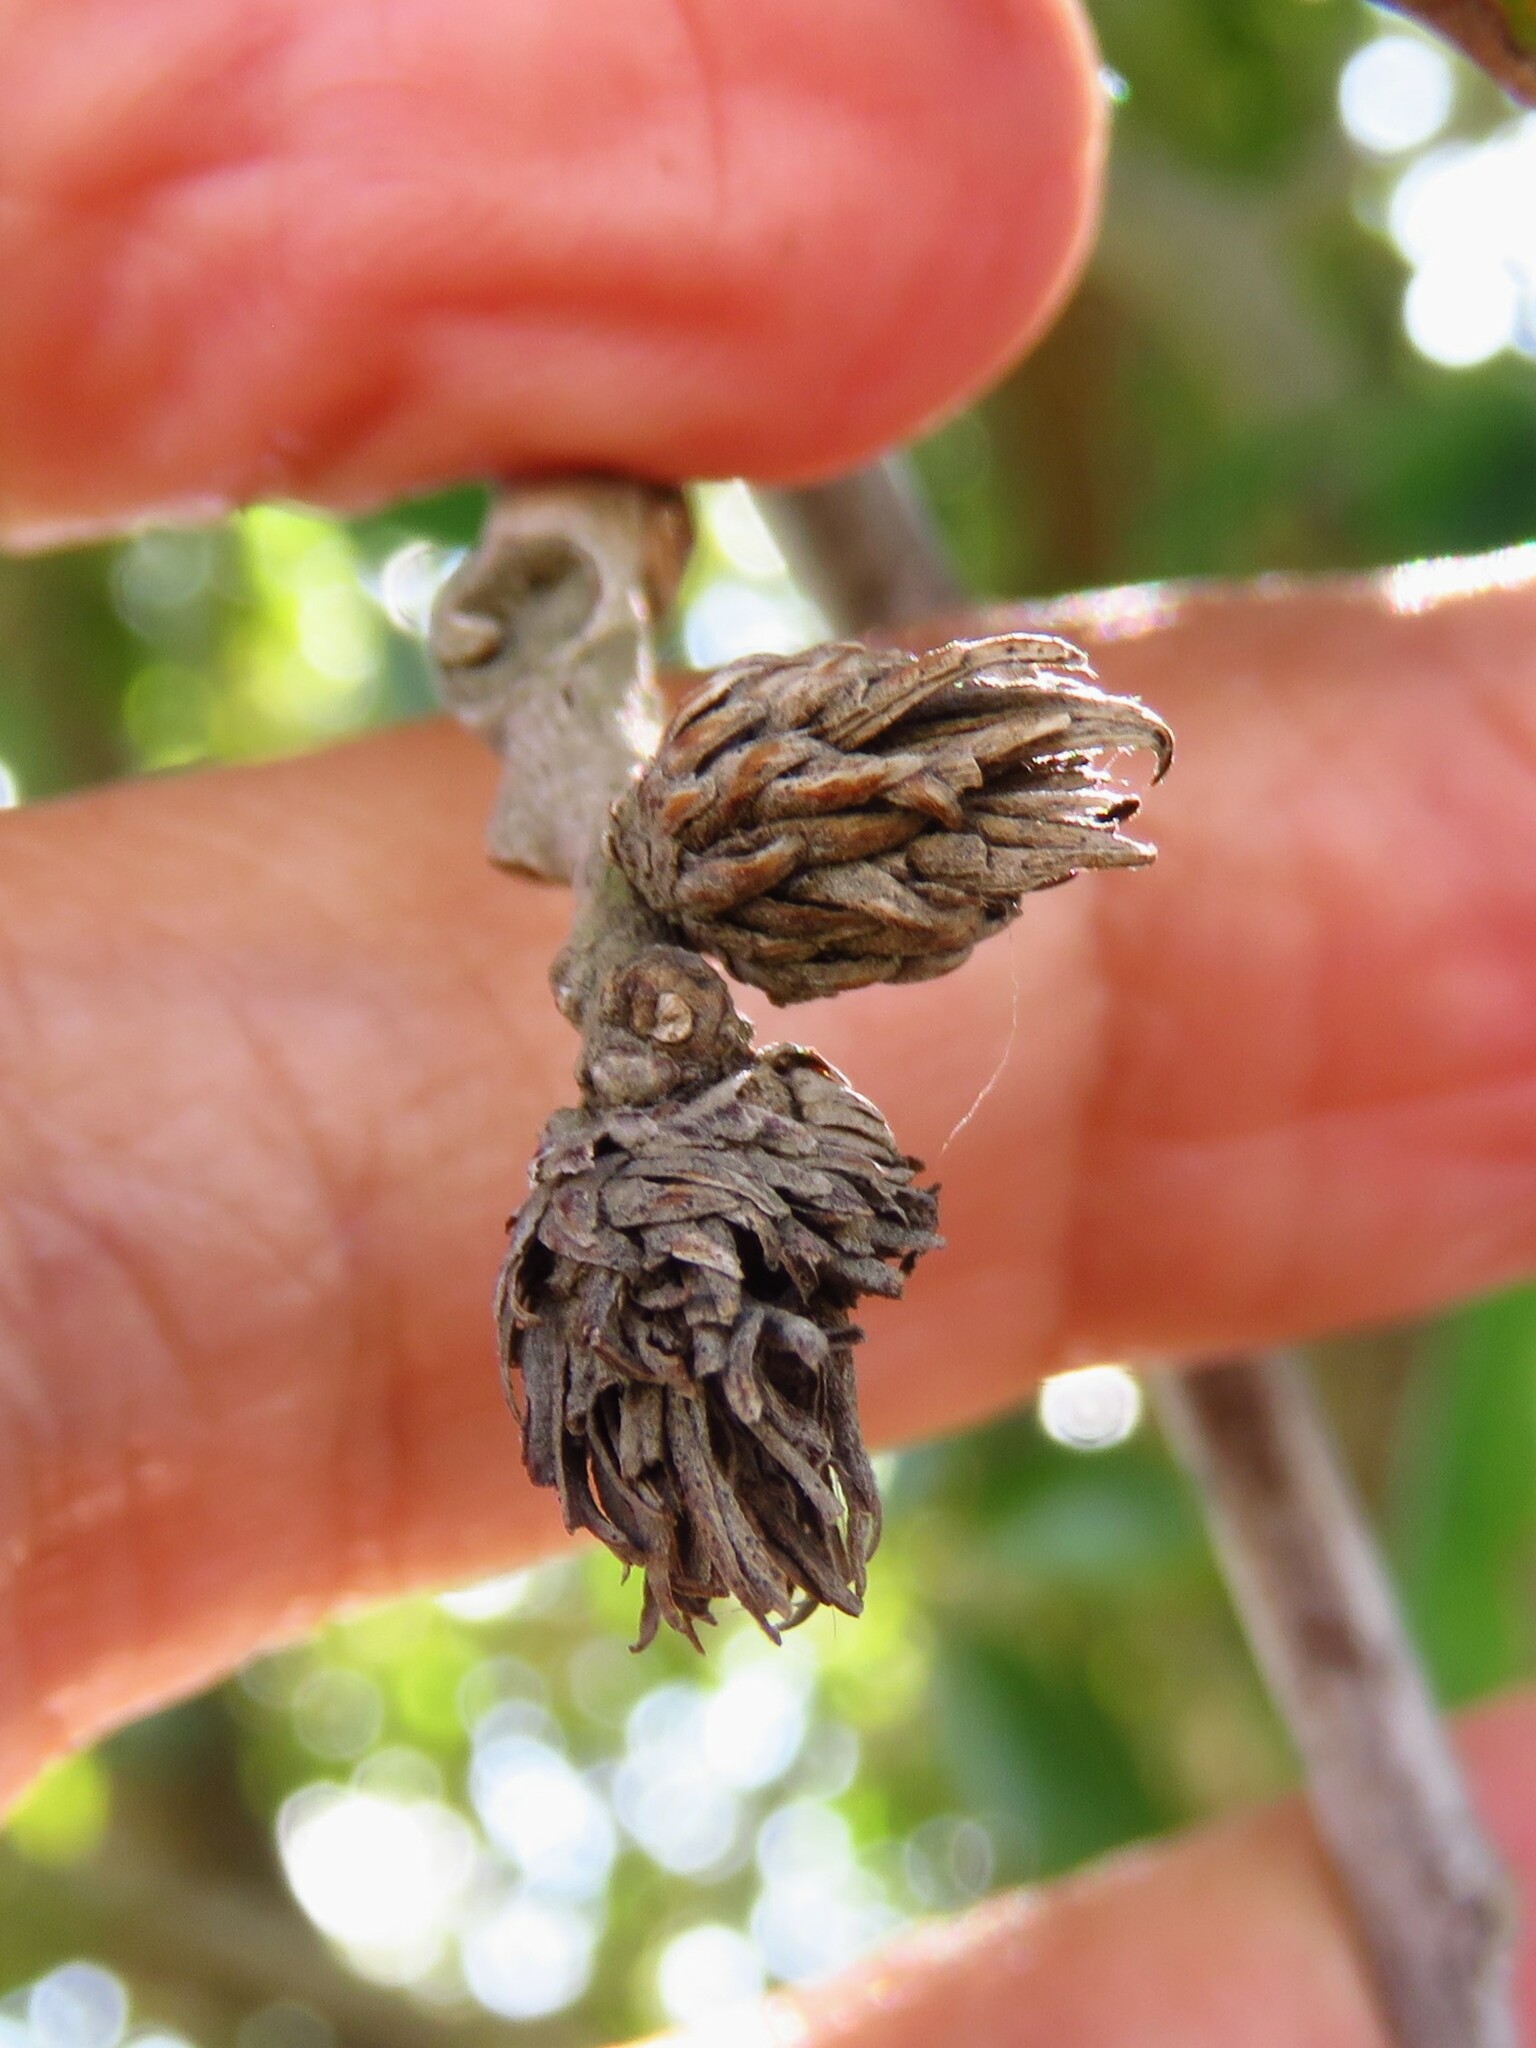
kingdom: Animalia
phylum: Arthropoda
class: Insecta
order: Hymenoptera
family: Cynipidae
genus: Andricus
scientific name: Andricus quercusfoliatus
